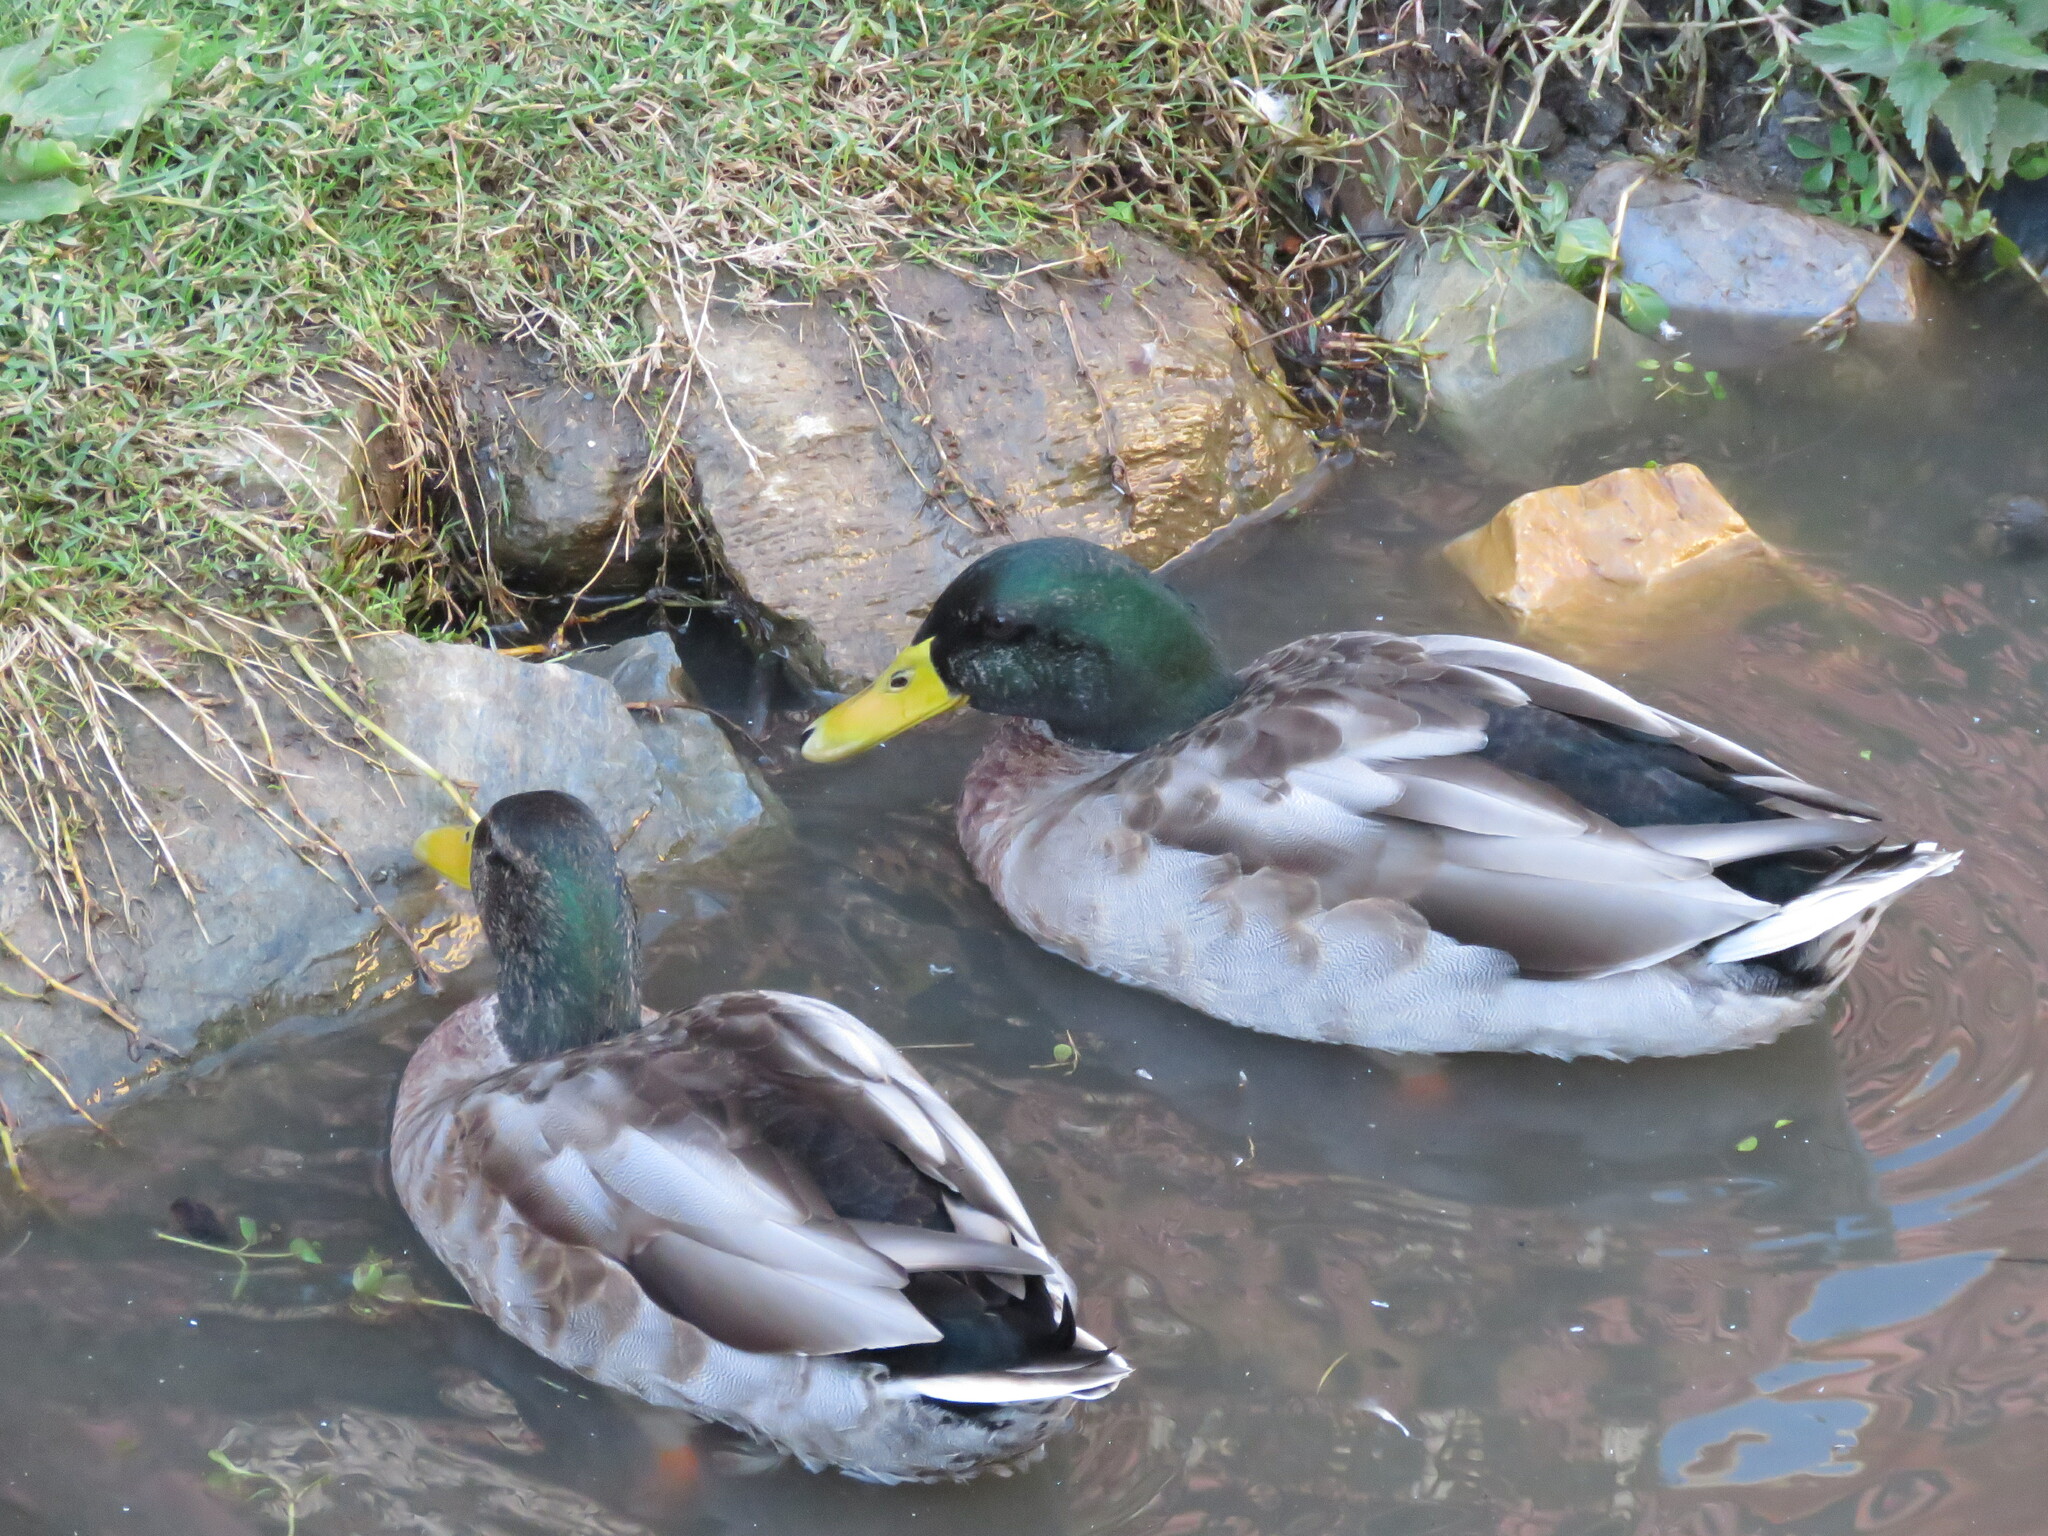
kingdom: Animalia
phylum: Chordata
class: Aves
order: Anseriformes
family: Anatidae
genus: Anas
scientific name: Anas platyrhynchos
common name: Mallard
